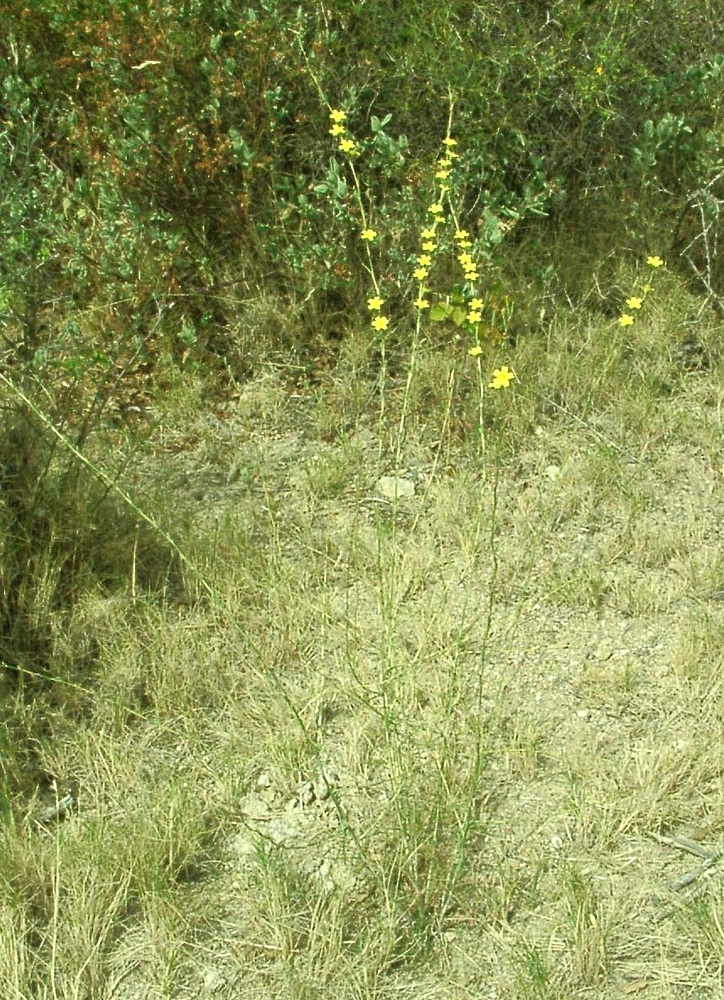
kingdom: Plantae
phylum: Tracheophyta
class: Magnoliopsida
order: Asterales
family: Asteraceae
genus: Lactuca
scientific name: Lactuca viminea
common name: Pliant lettuce
